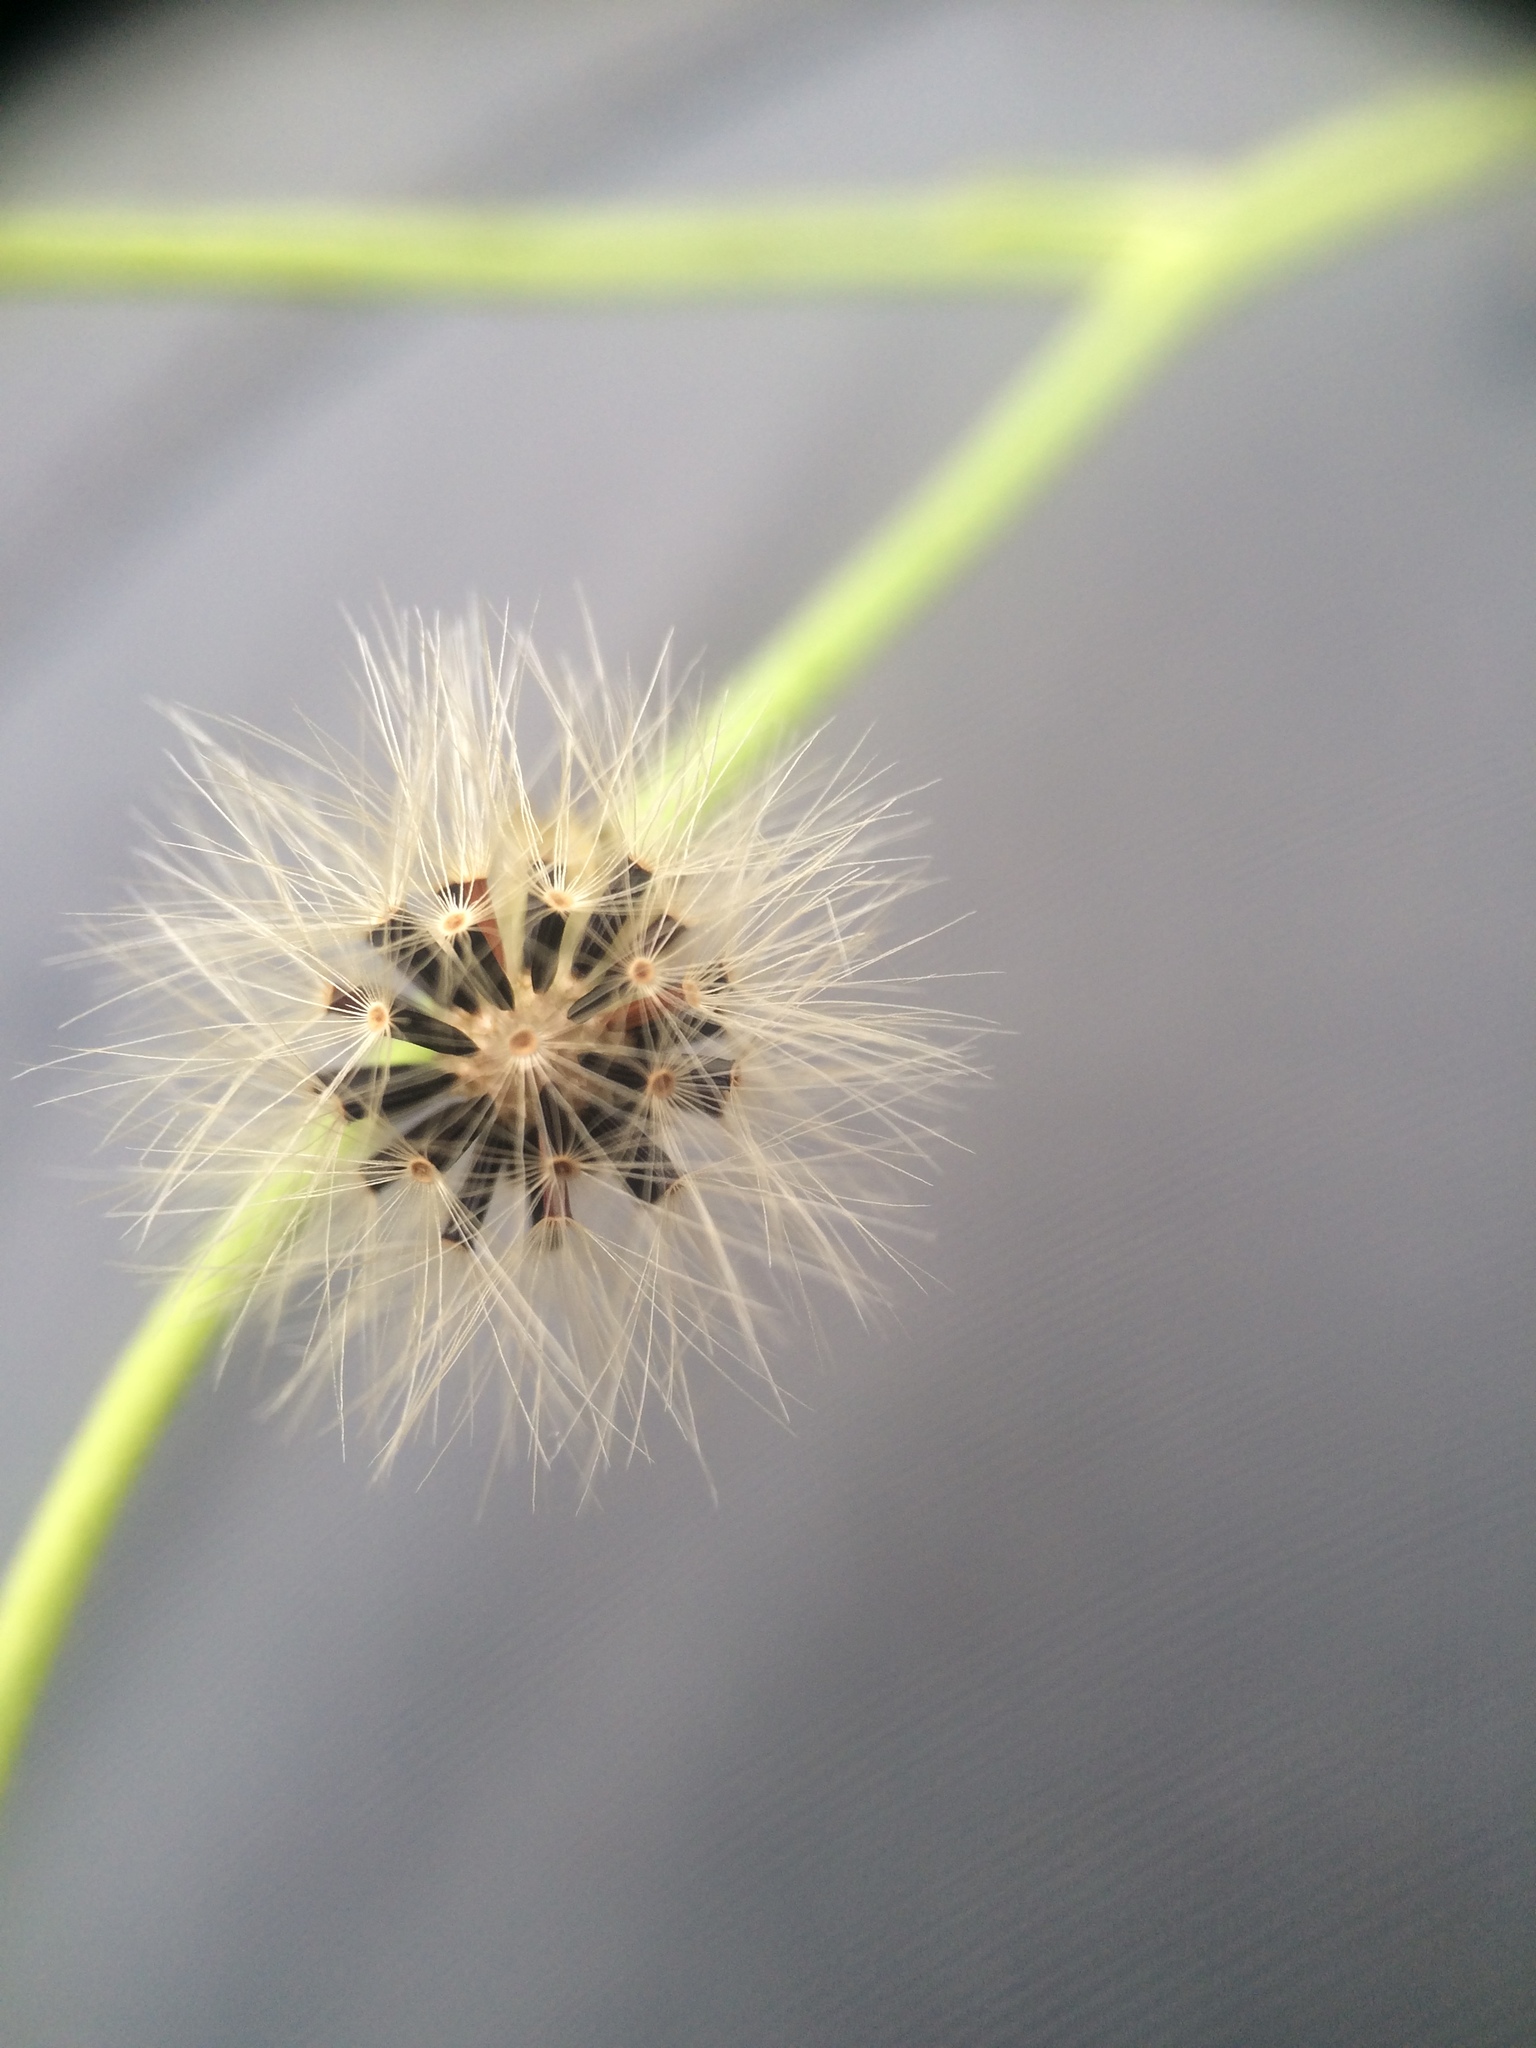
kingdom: Plantae
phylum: Tracheophyta
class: Magnoliopsida
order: Asterales
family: Asteraceae
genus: Pilosella
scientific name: Pilosella piloselloides
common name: Glaucous king-devil
